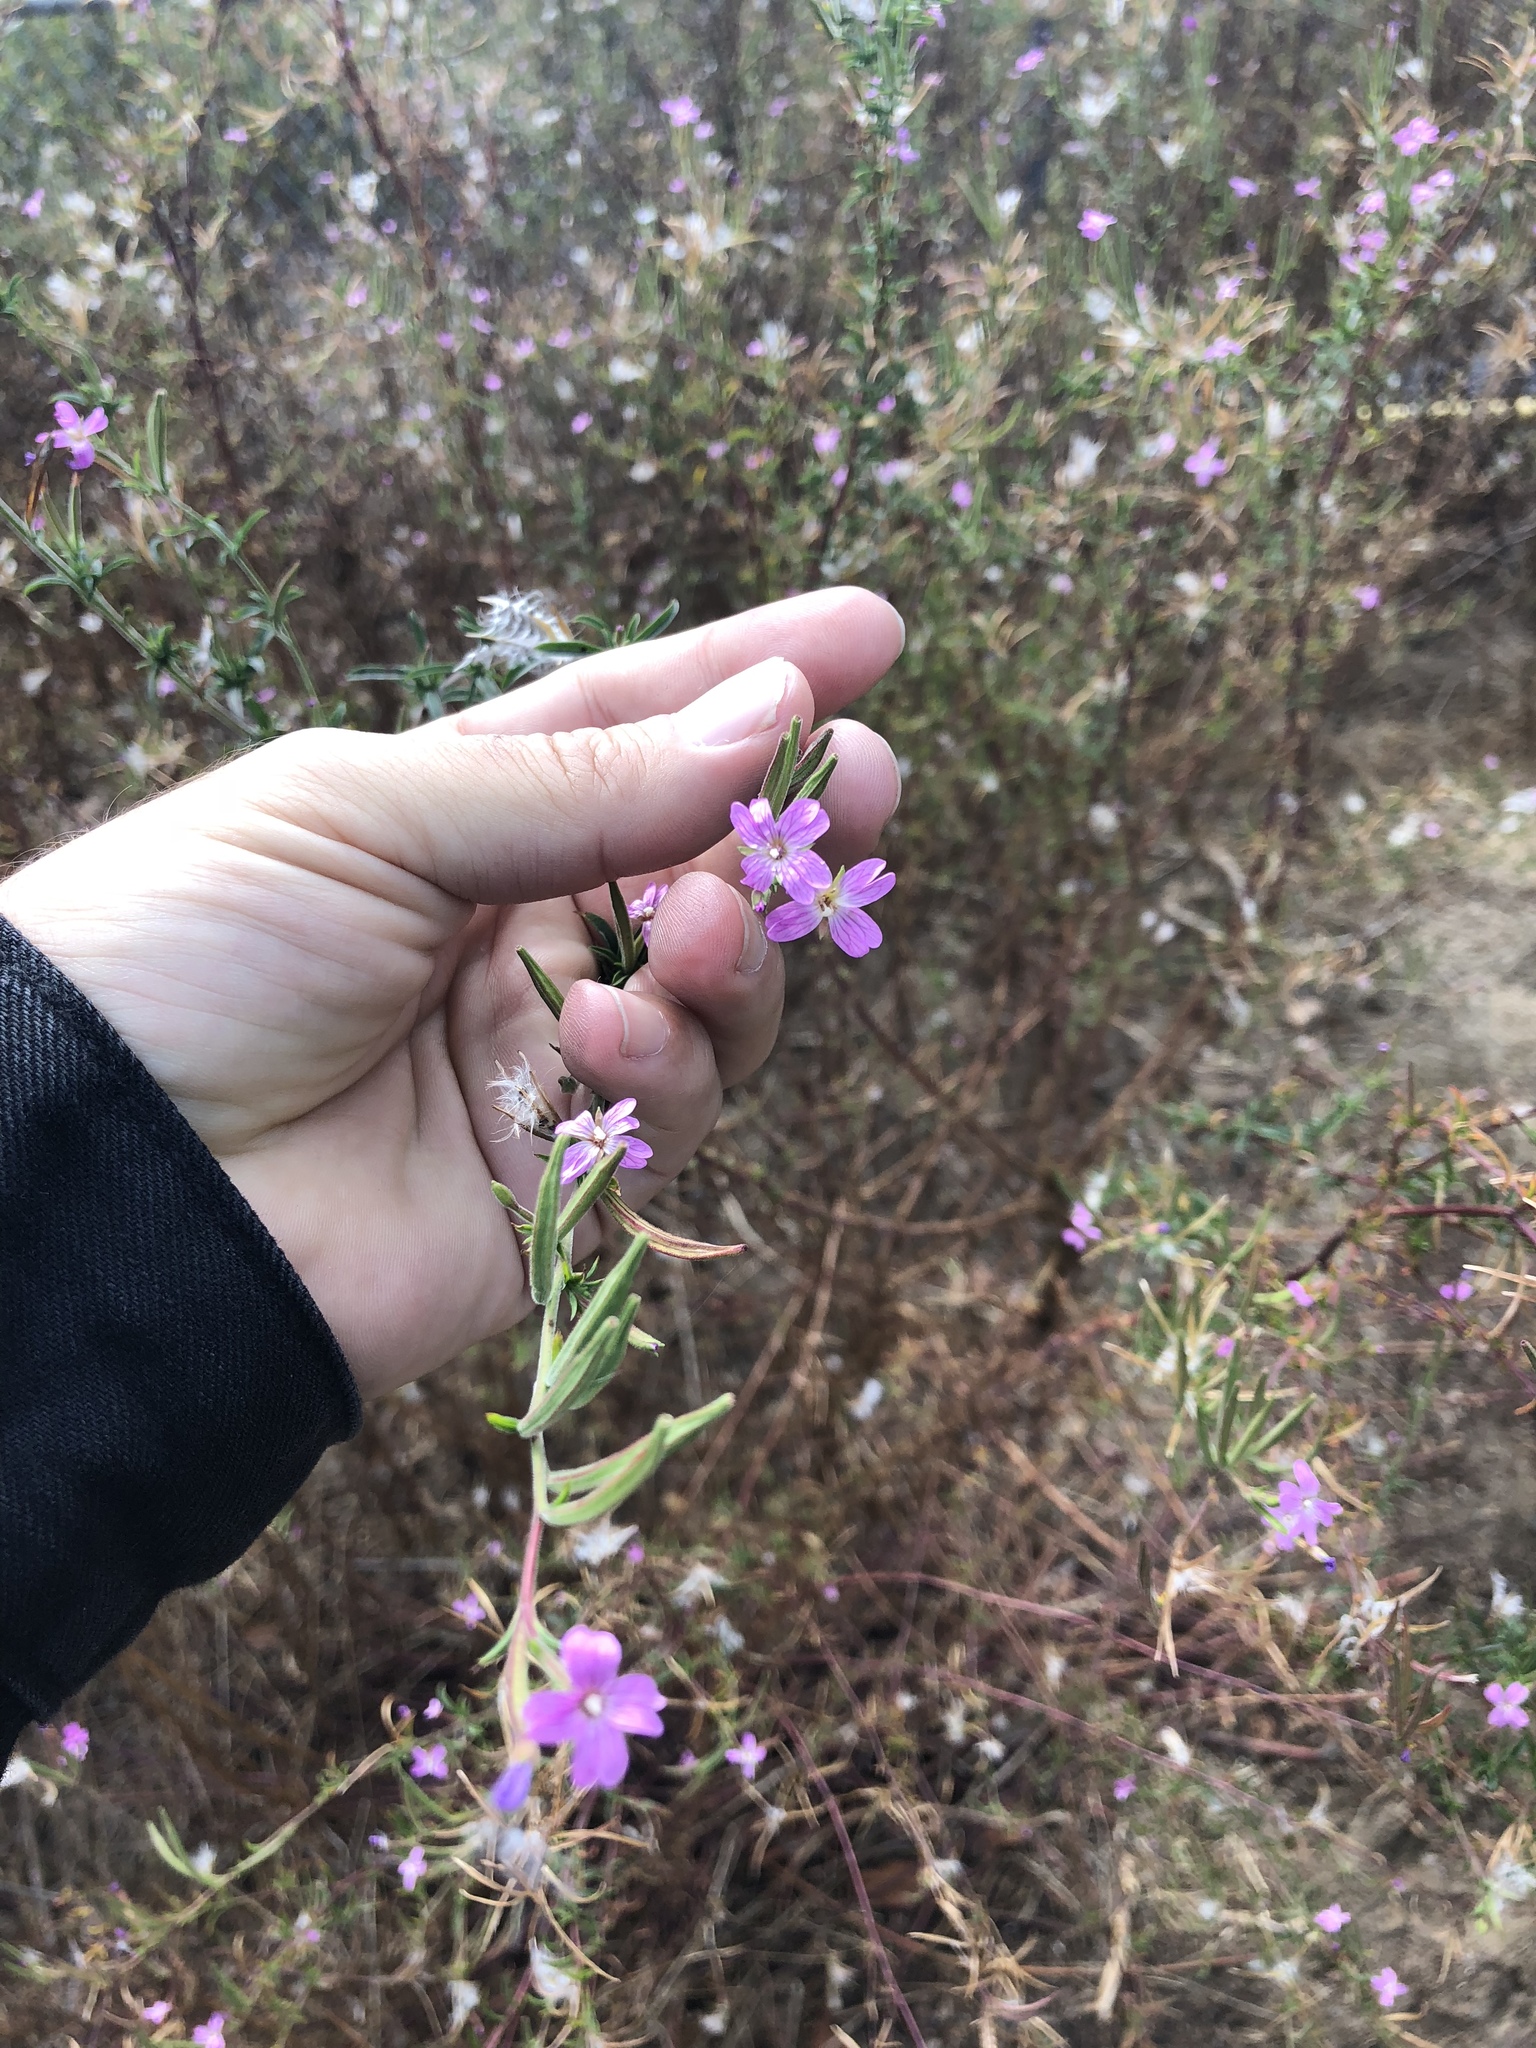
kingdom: Plantae
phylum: Tracheophyta
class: Magnoliopsida
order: Myrtales
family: Onagraceae
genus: Epilobium
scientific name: Epilobium brachycarpum
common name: Annual willowherb
